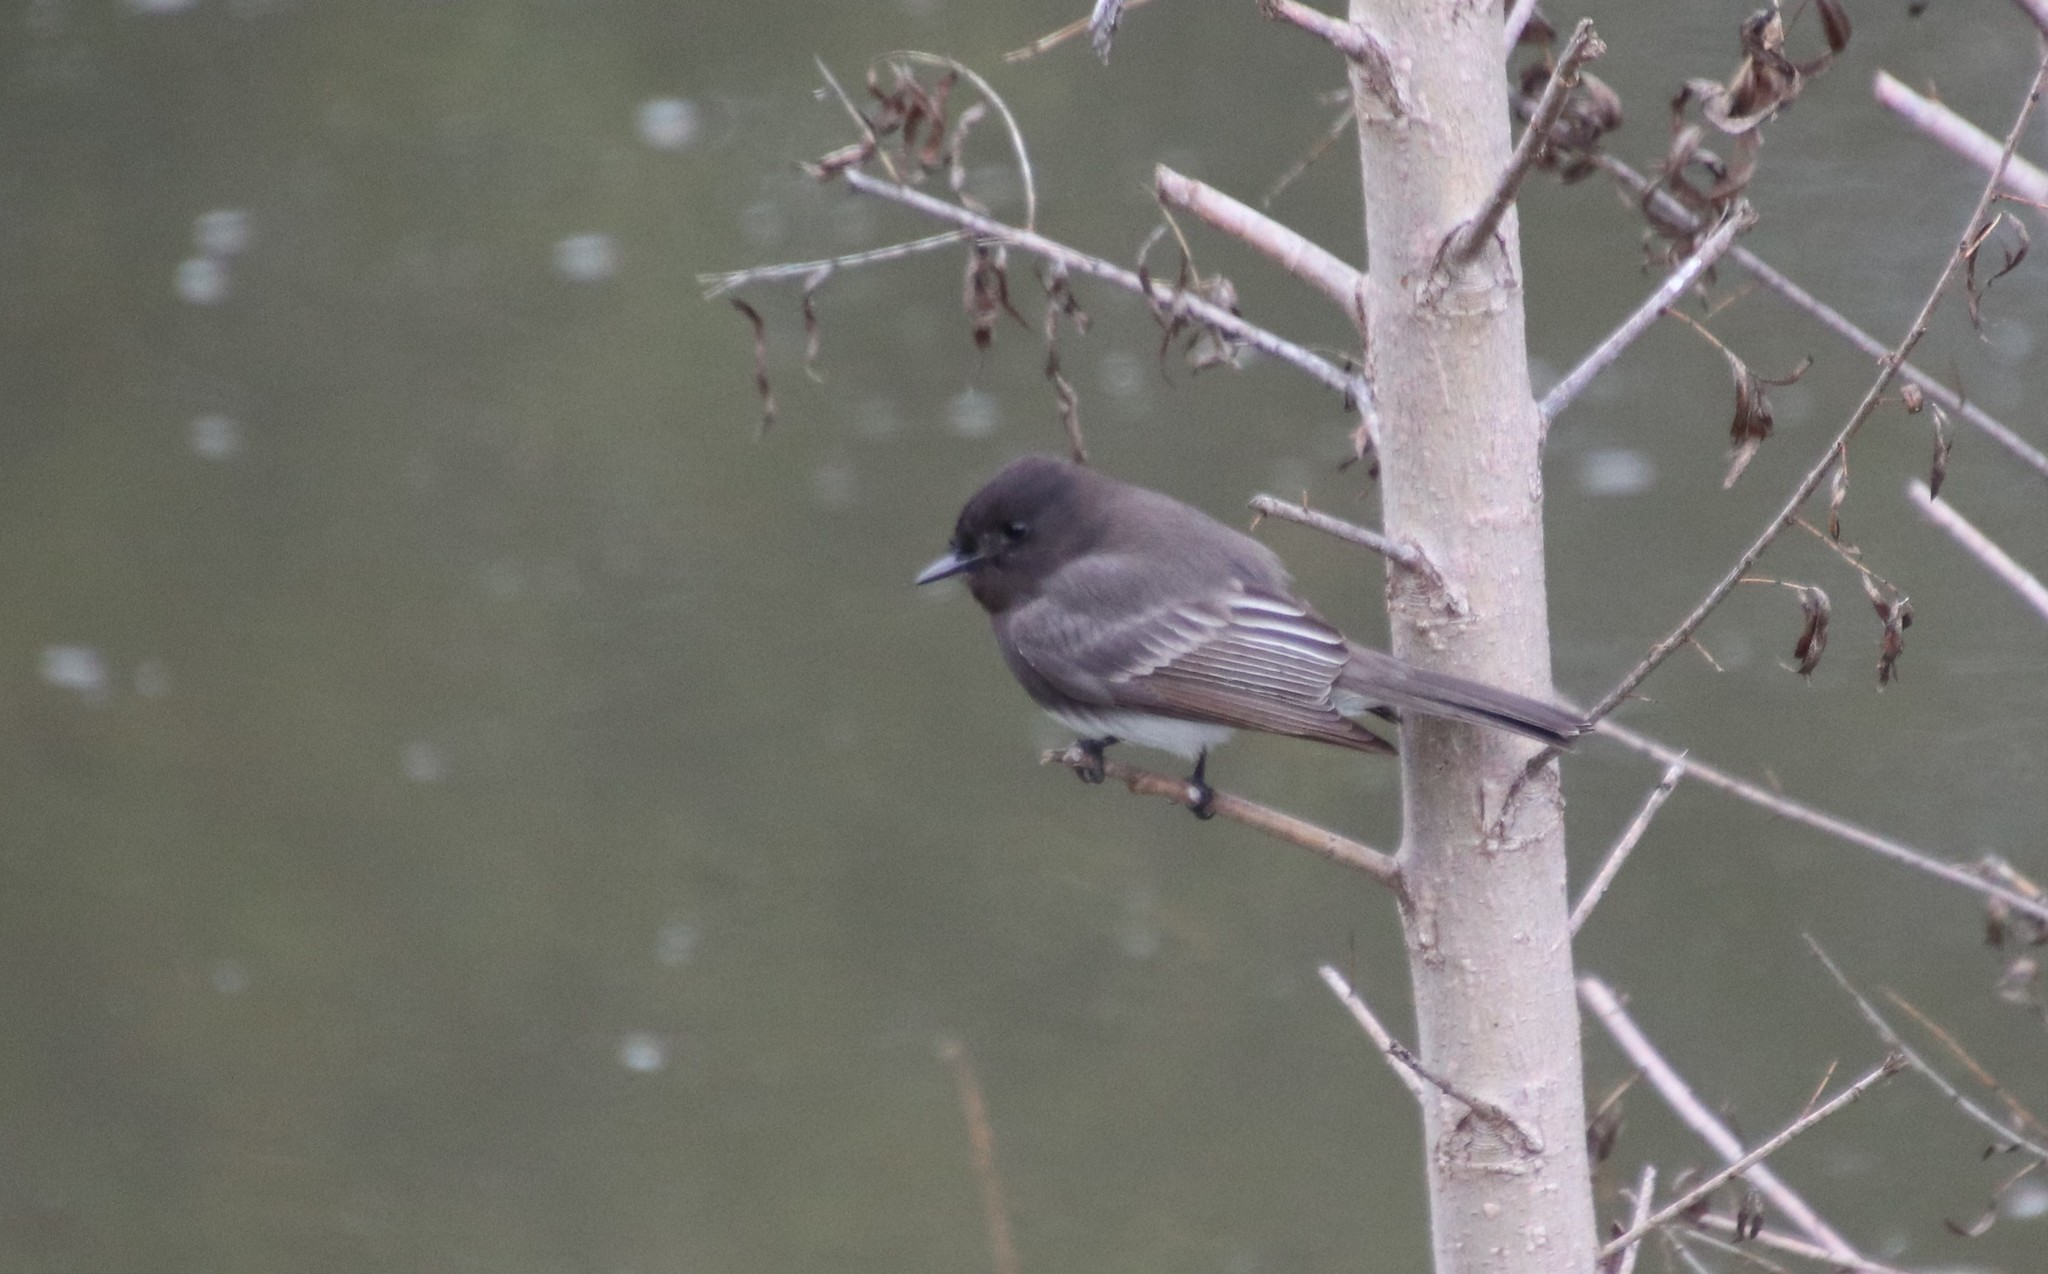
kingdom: Animalia
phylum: Chordata
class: Aves
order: Passeriformes
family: Tyrannidae
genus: Sayornis
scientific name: Sayornis nigricans
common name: Black phoebe
